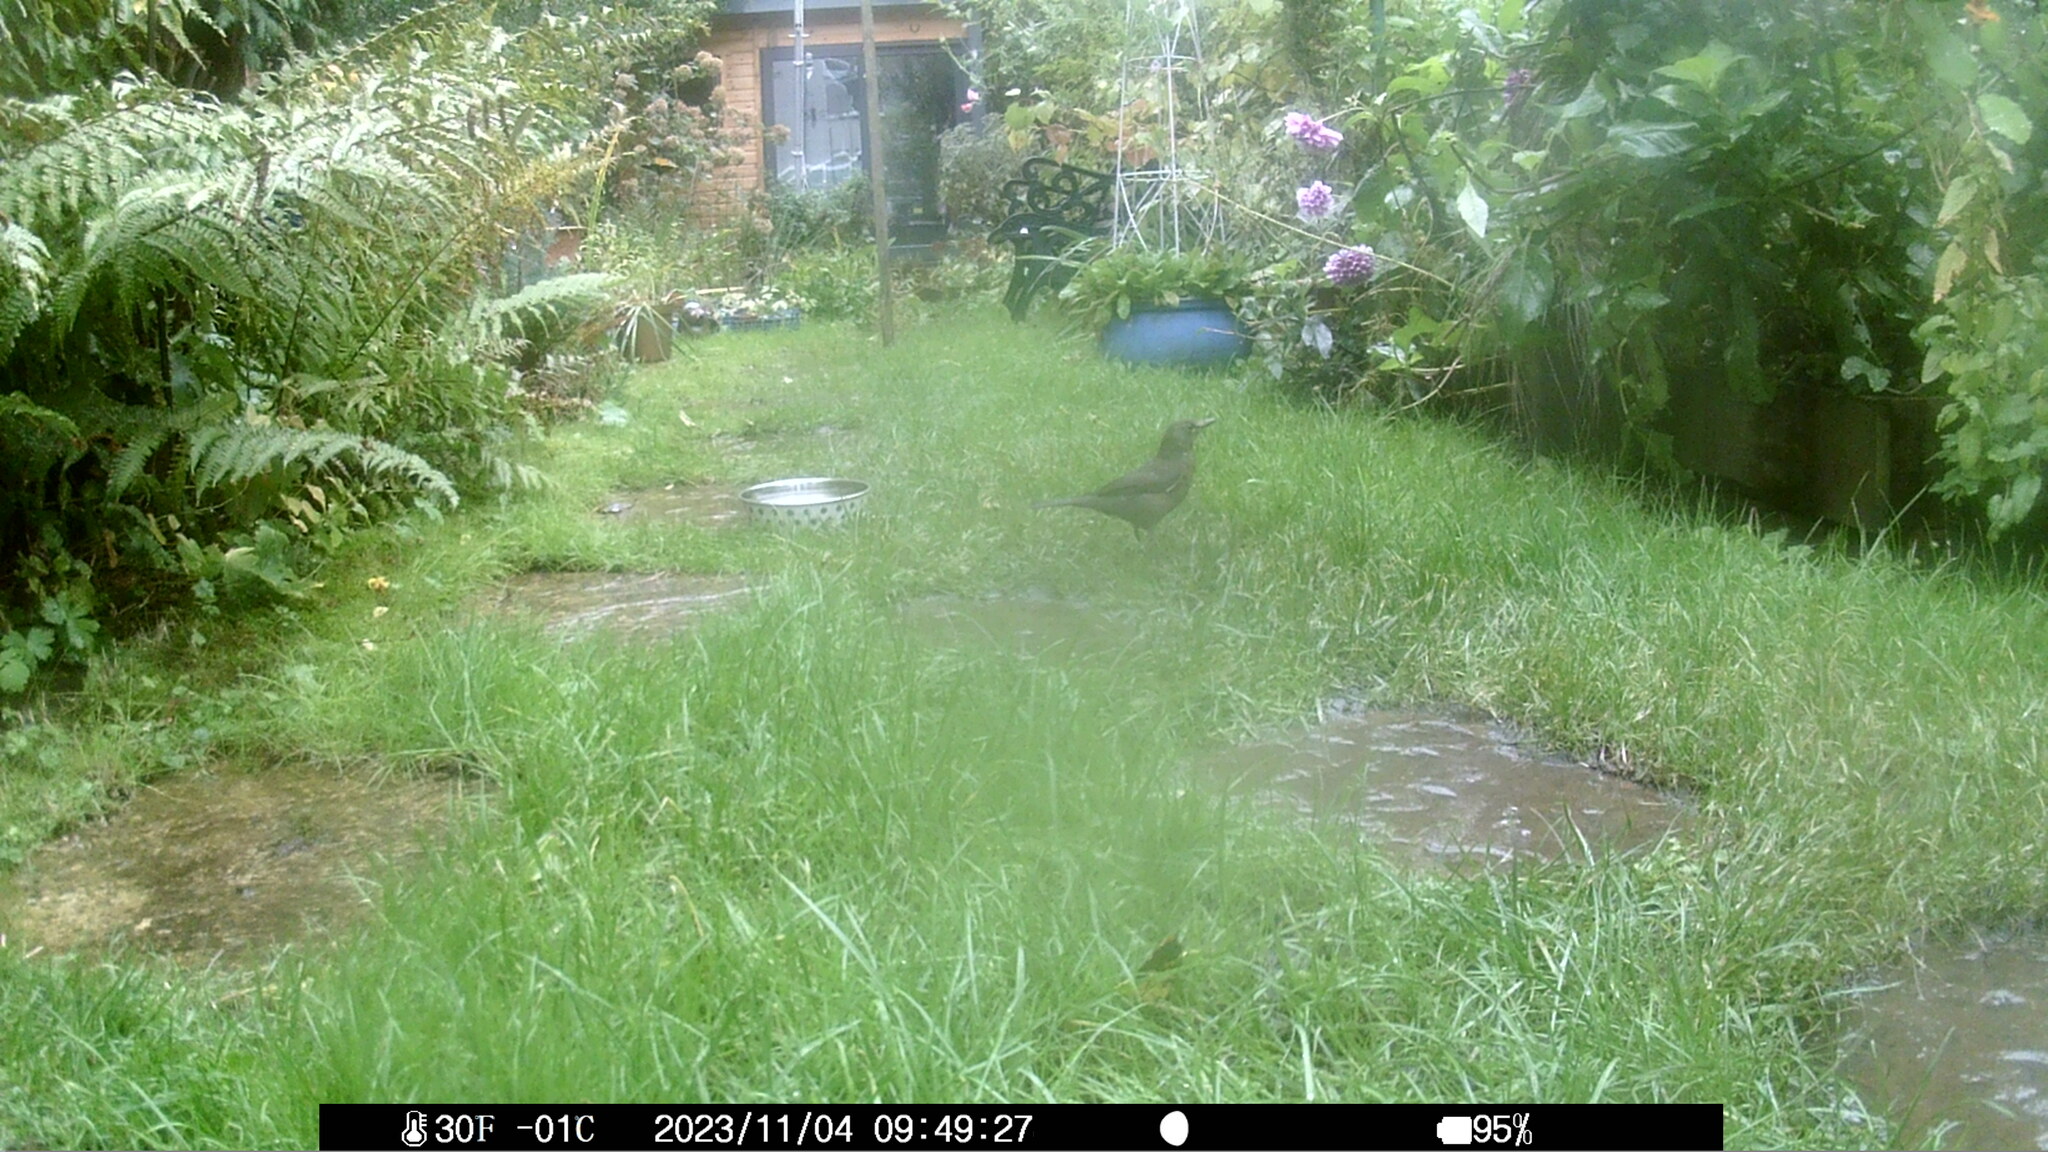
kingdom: Animalia
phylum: Chordata
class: Aves
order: Passeriformes
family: Turdidae
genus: Turdus
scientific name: Turdus merula
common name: Common blackbird
